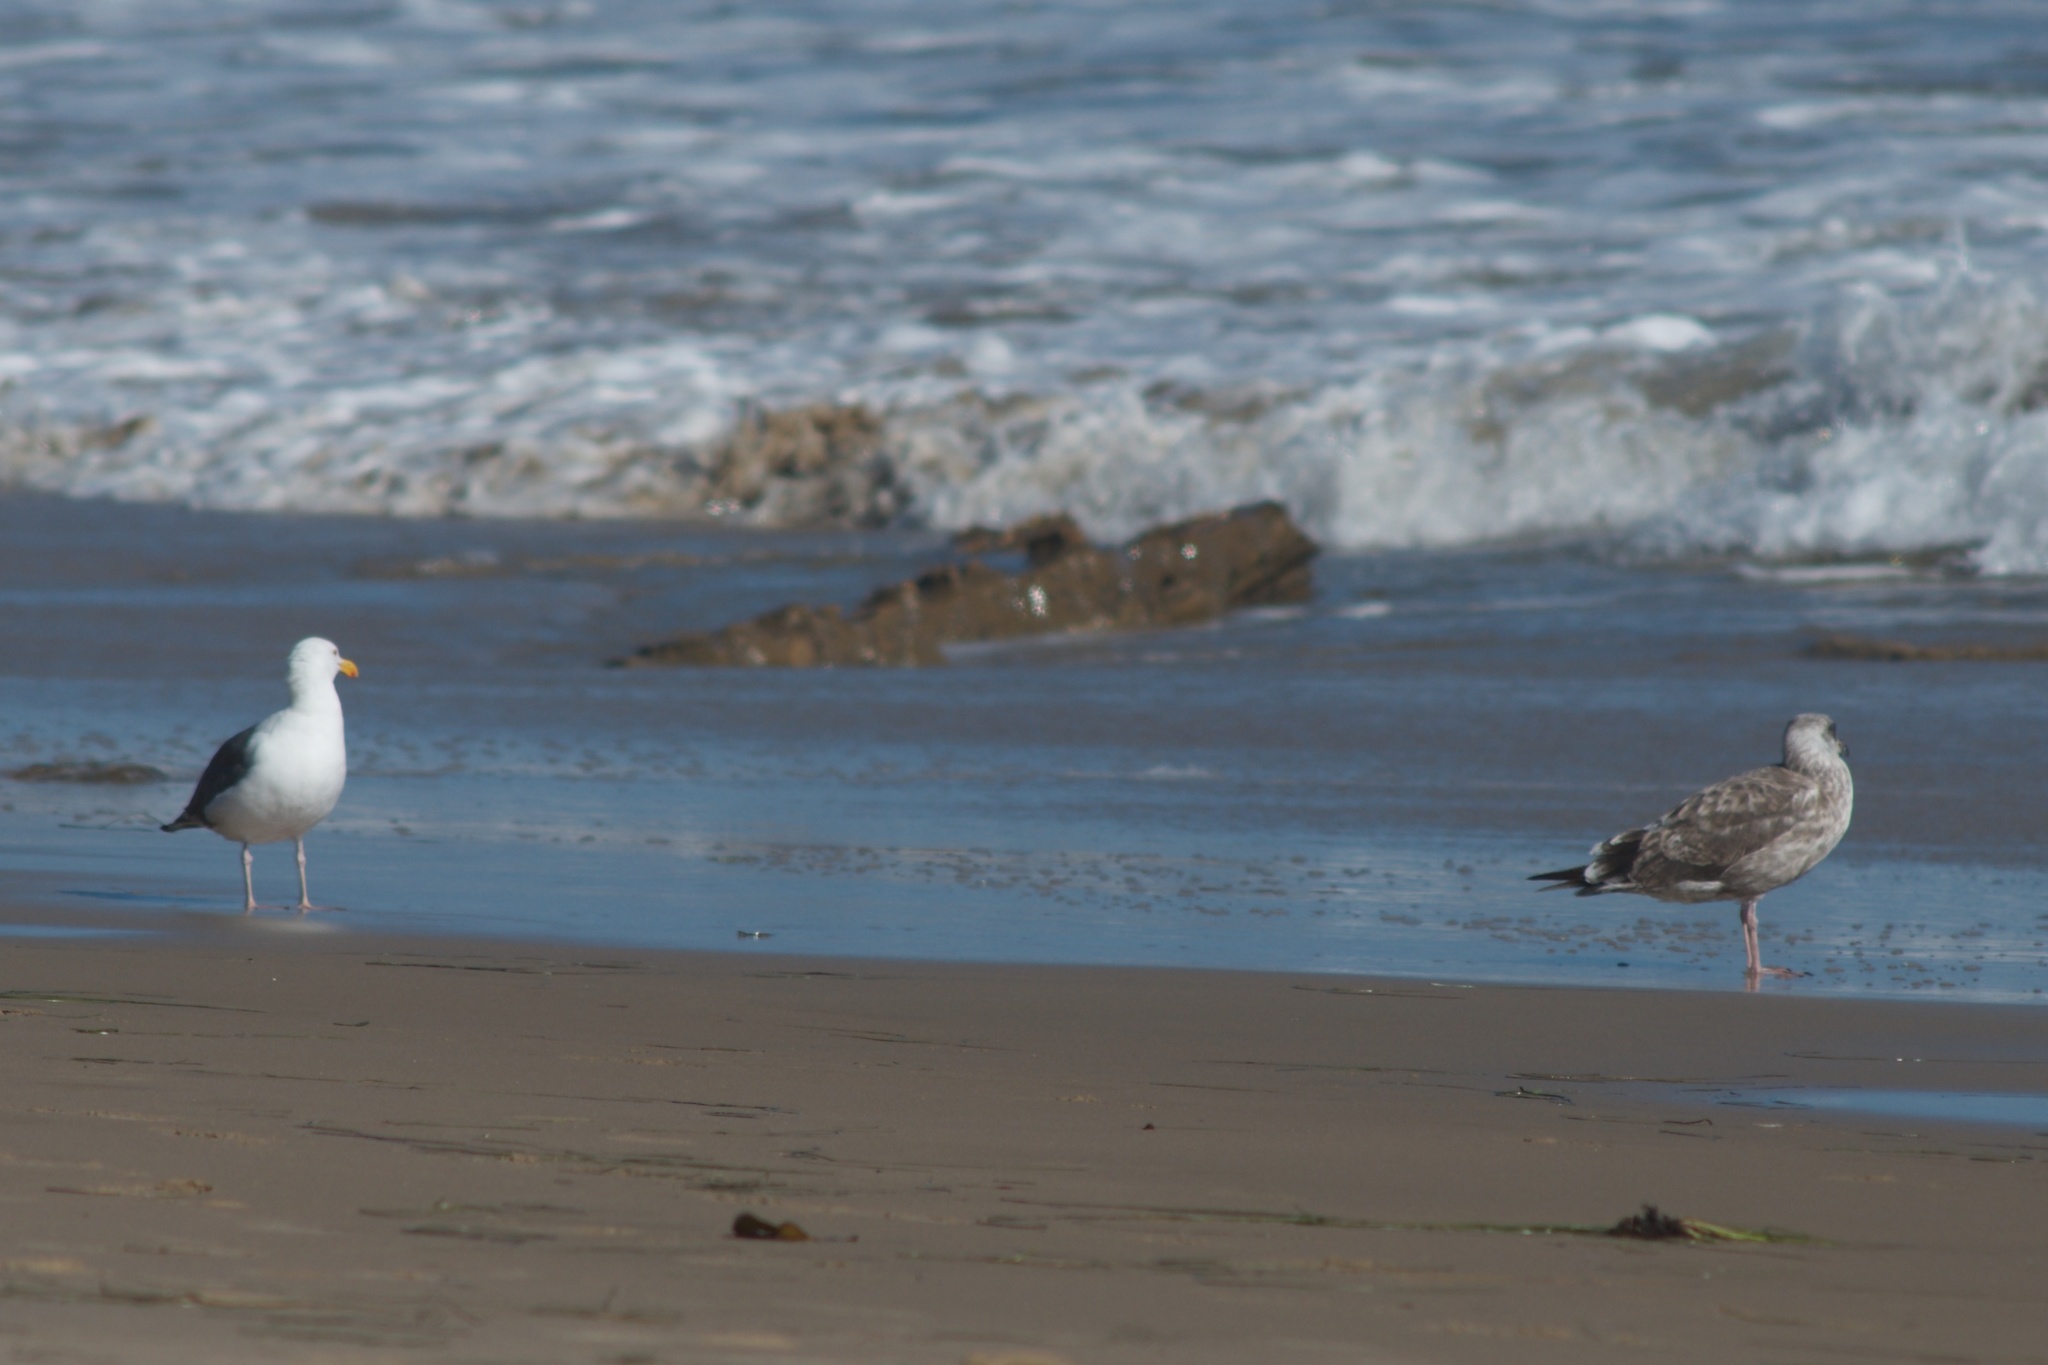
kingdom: Animalia
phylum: Chordata
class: Aves
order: Charadriiformes
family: Laridae
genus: Larus
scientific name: Larus occidentalis
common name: Western gull
